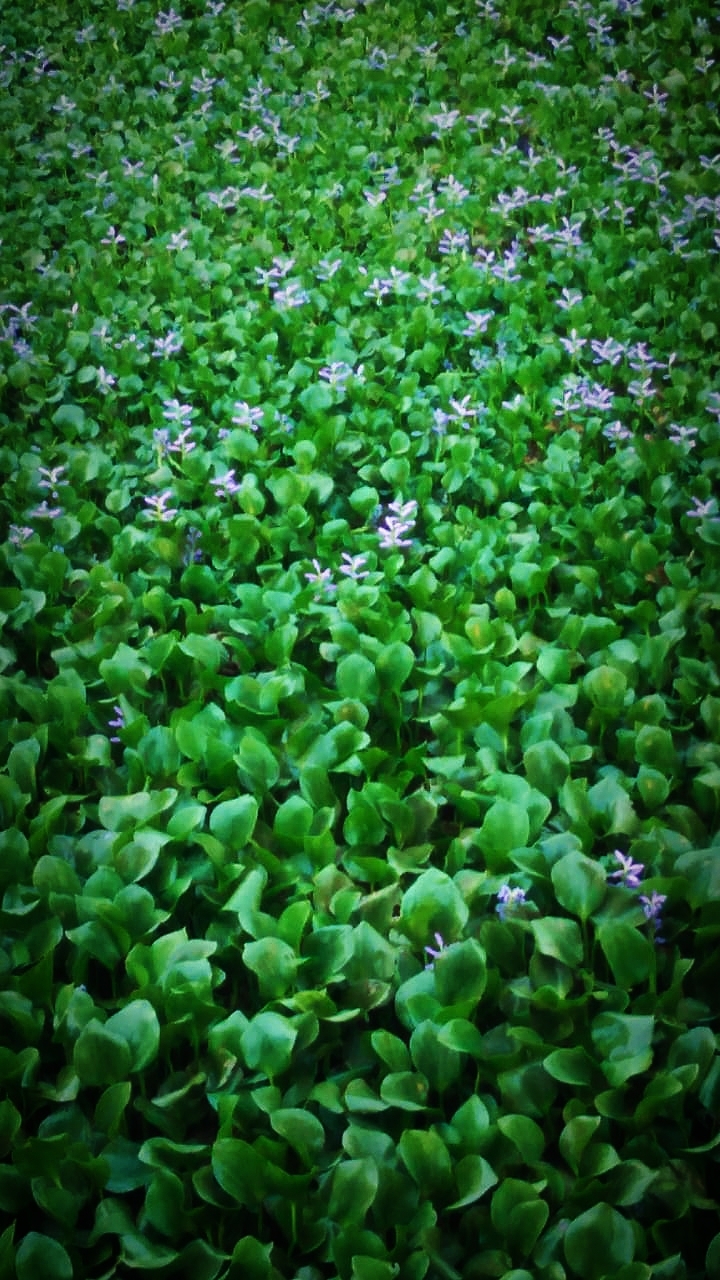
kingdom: Plantae
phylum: Tracheophyta
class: Liliopsida
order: Commelinales
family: Pontederiaceae
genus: Pontederia
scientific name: Pontederia crassipes
